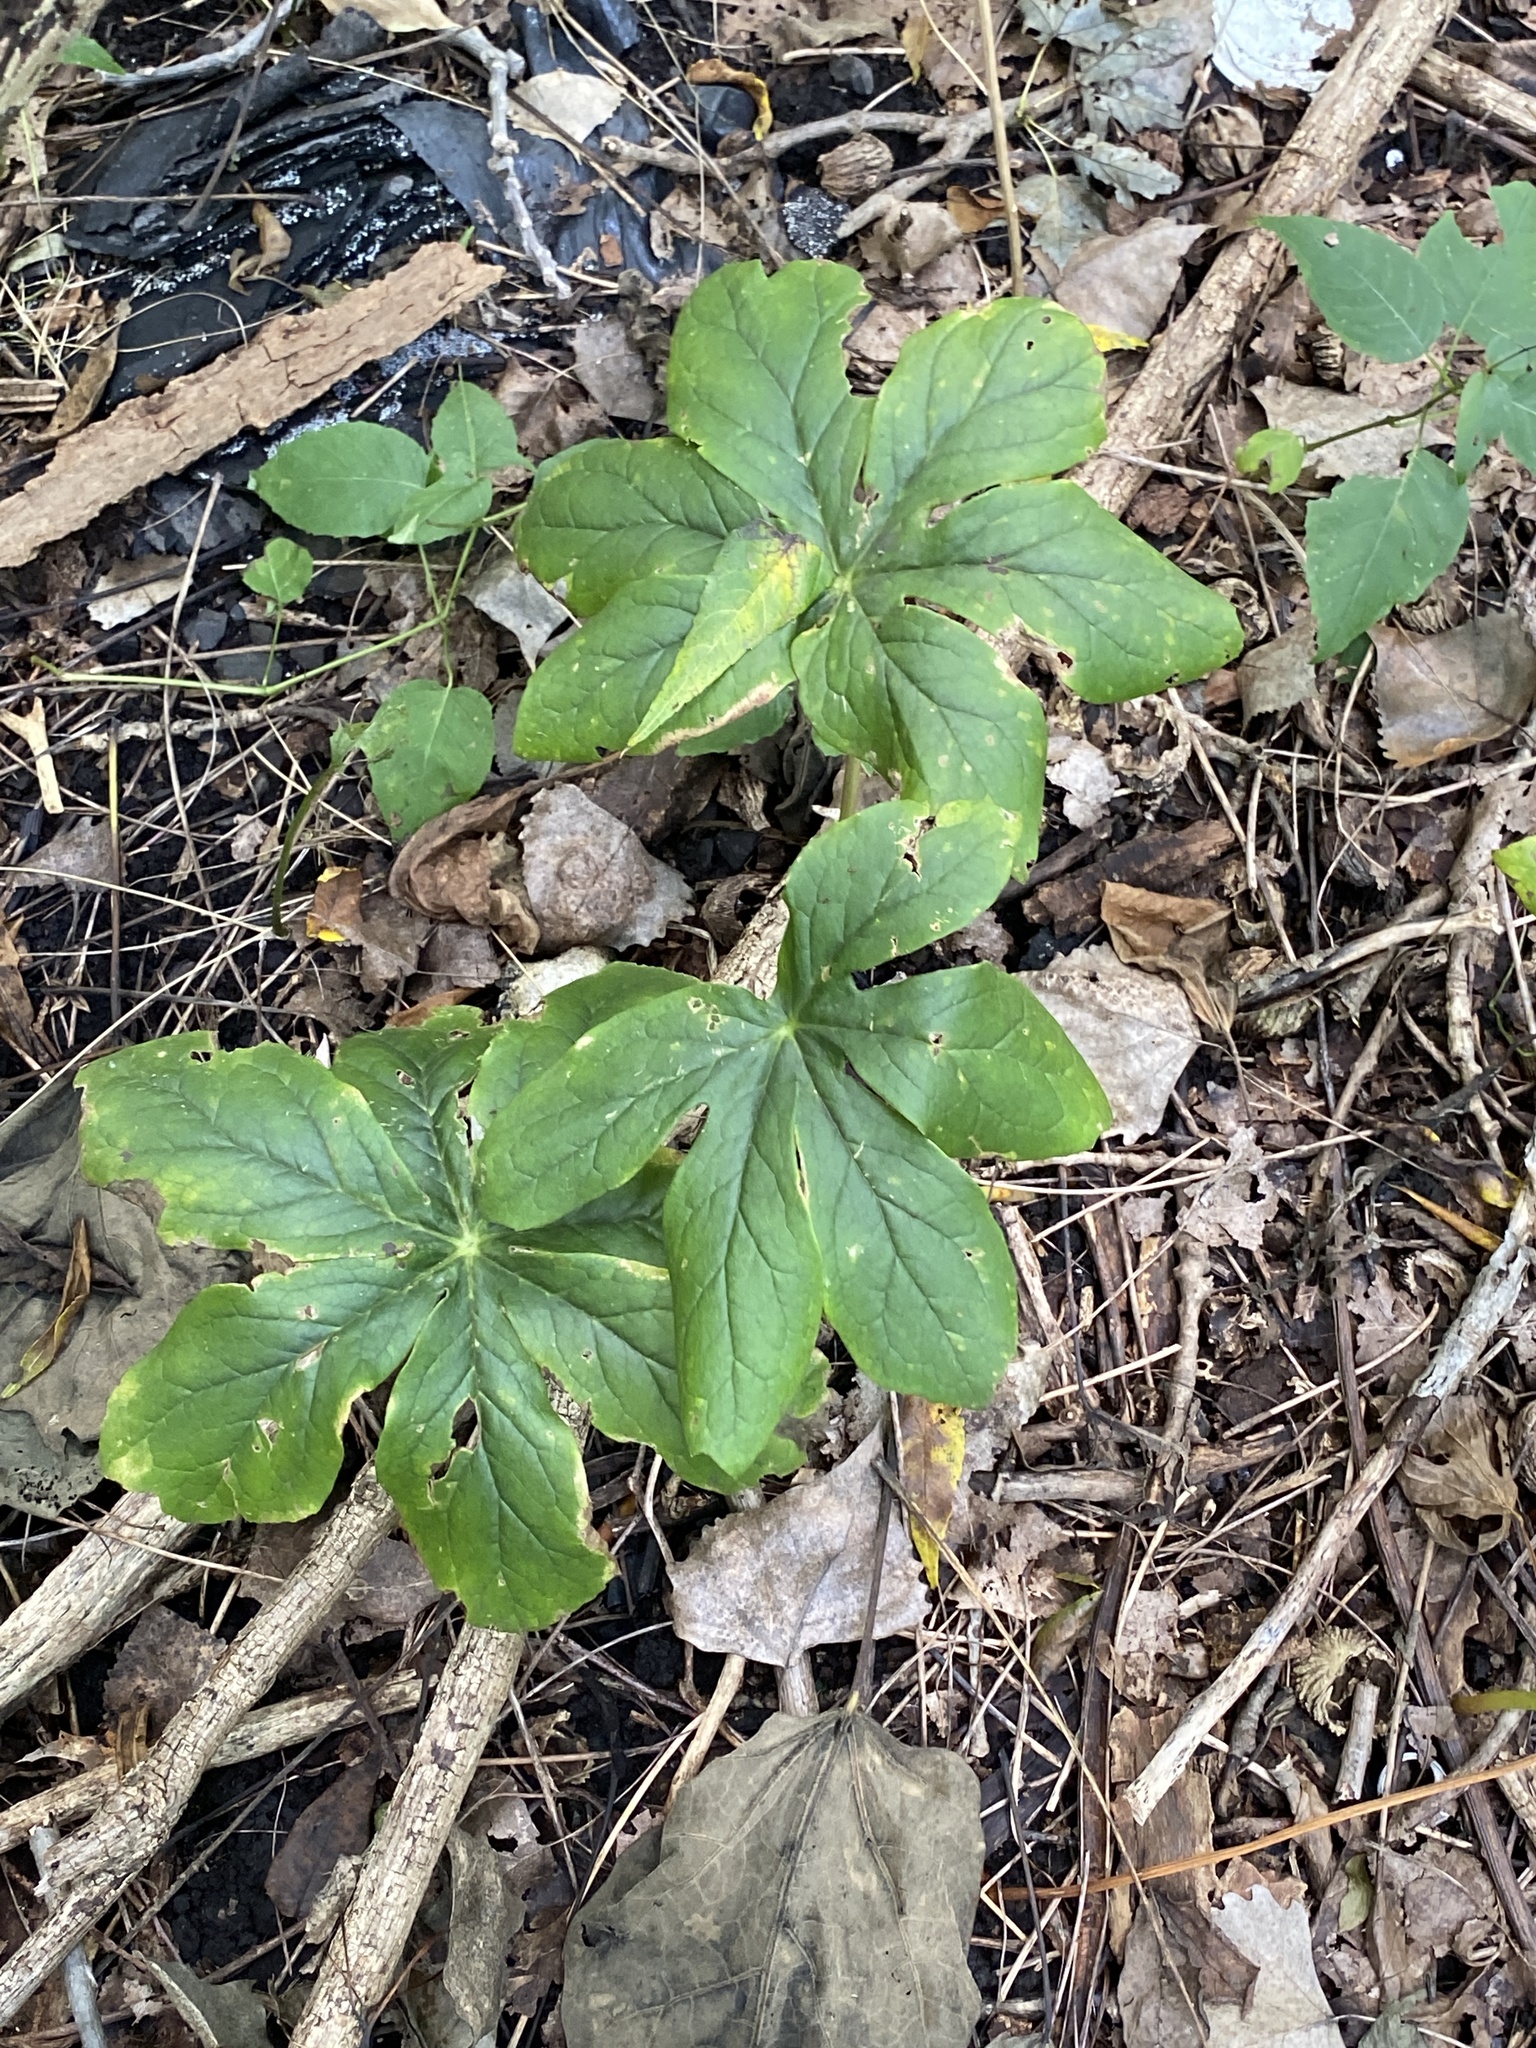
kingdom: Plantae
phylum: Tracheophyta
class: Magnoliopsida
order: Ranunculales
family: Berberidaceae
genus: Podophyllum
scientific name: Podophyllum peltatum
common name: Wild mandrake
